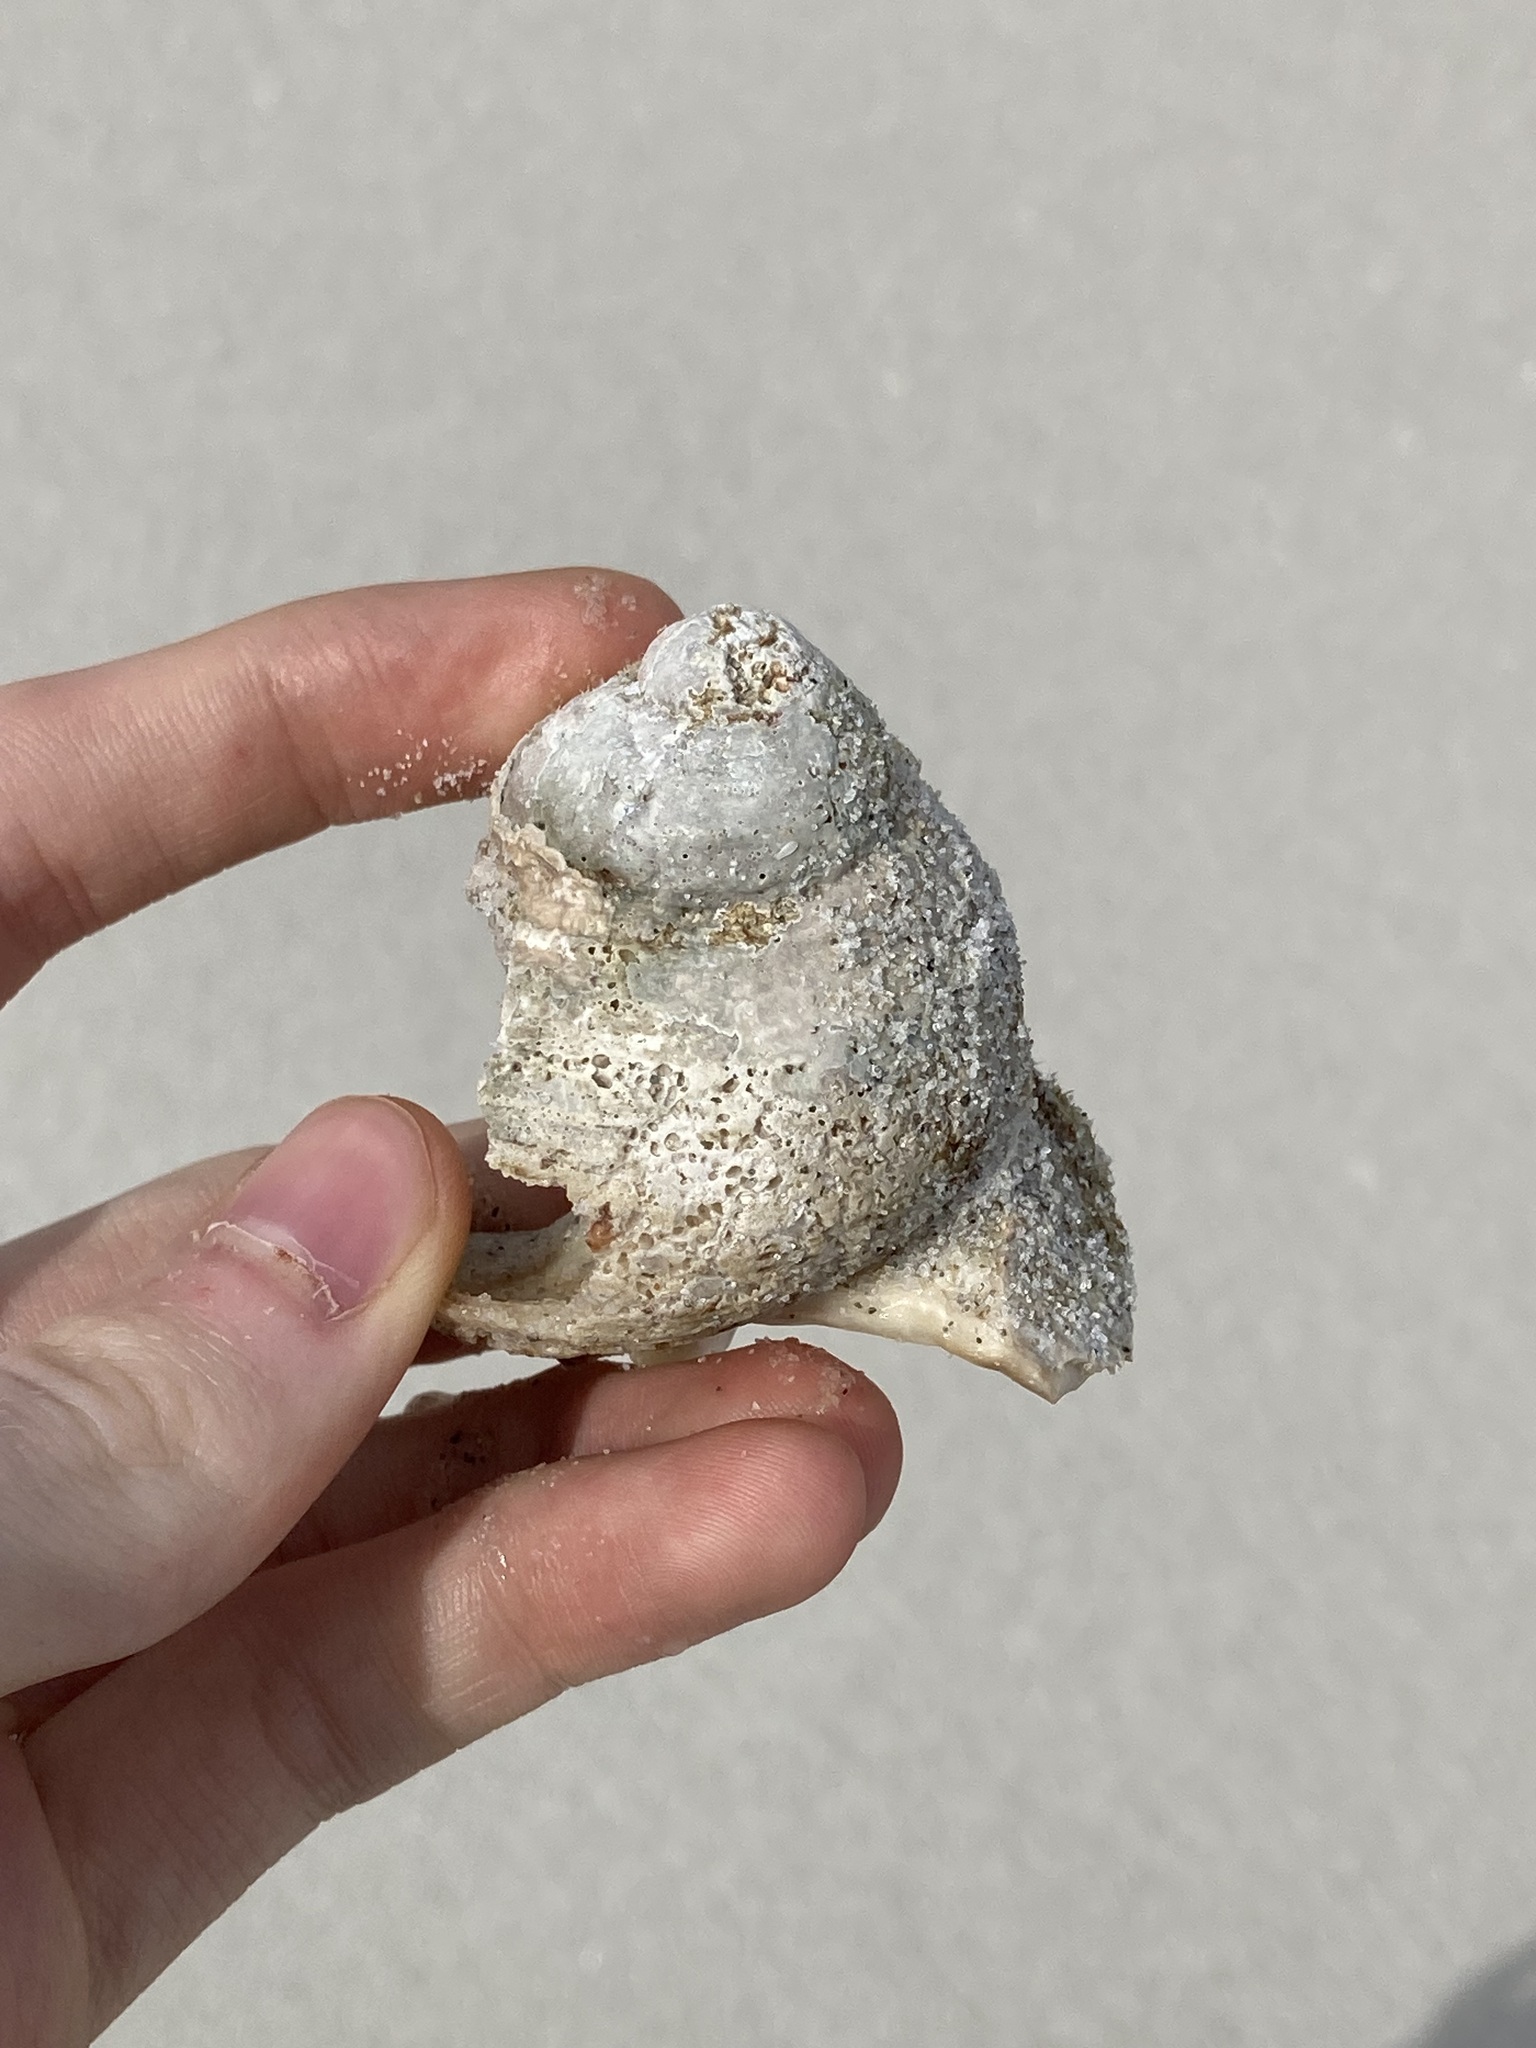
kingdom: Animalia
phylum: Mollusca
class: Gastropoda
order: Trochida
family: Turbinidae
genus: Turbo
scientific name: Turbo kenwilliamsi
